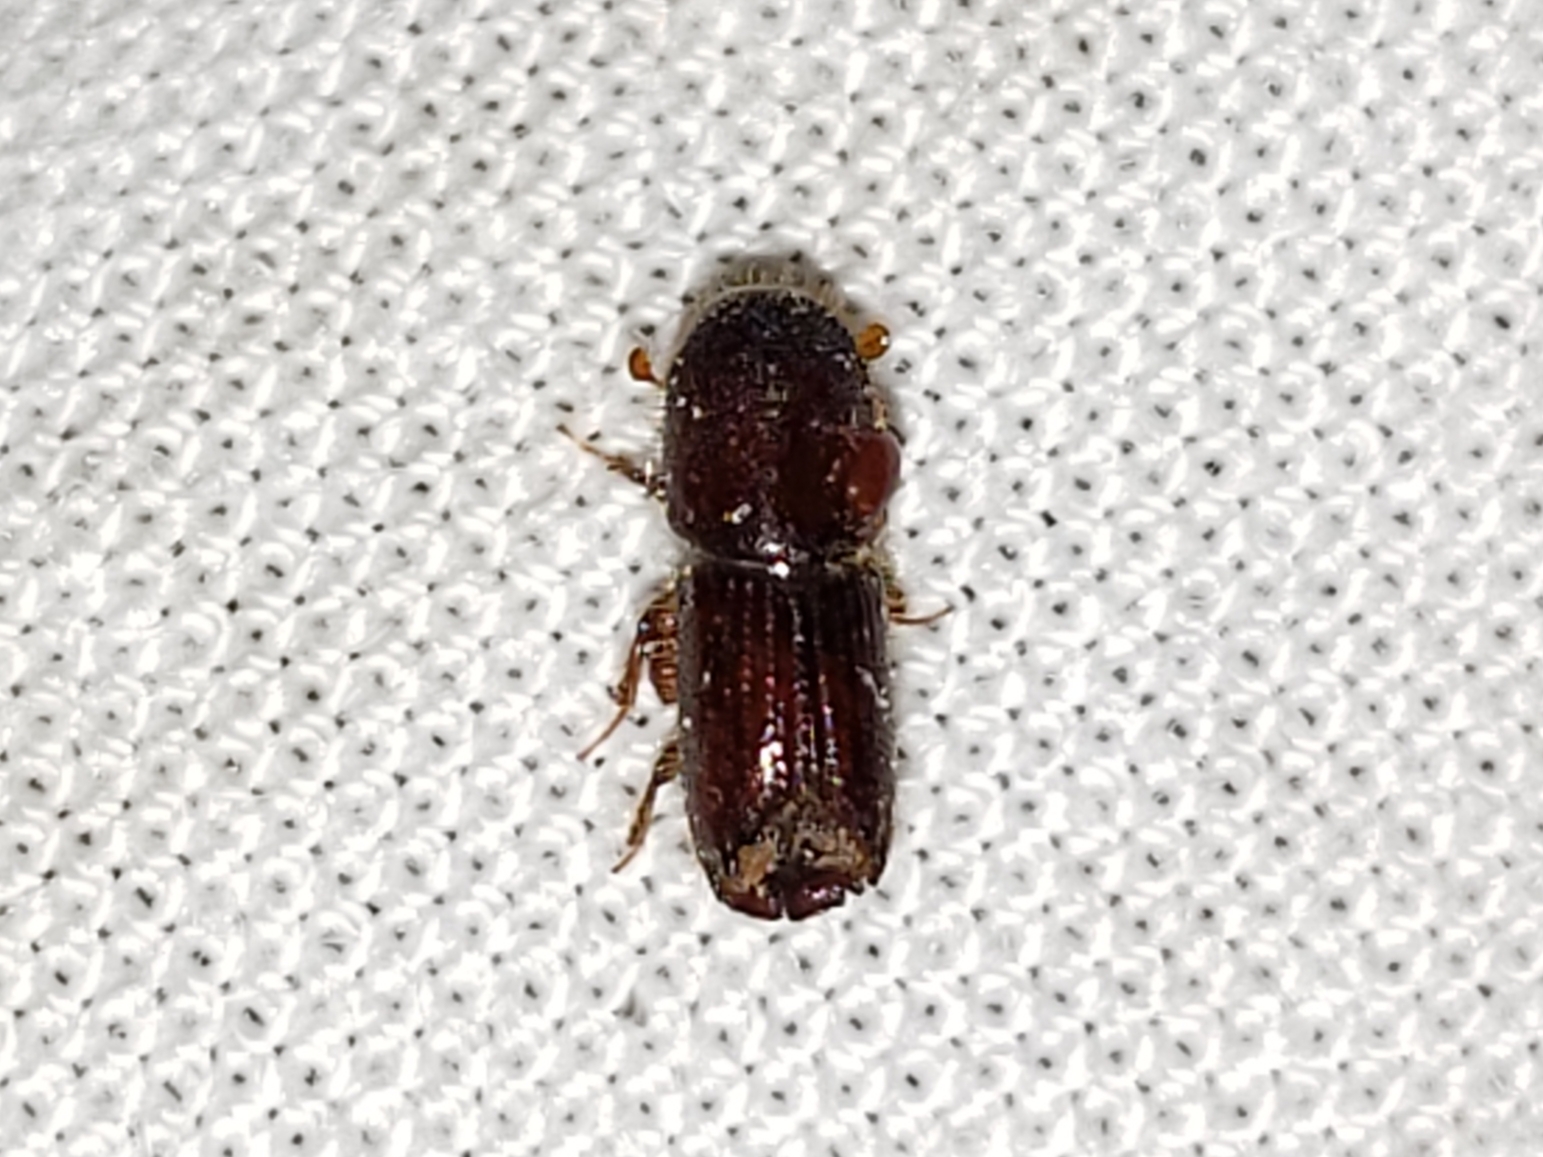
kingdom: Animalia
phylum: Arthropoda
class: Insecta
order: Coleoptera
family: Curculionidae
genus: Ips
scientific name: Ips grandicollis
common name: Eastern fivespined ips
